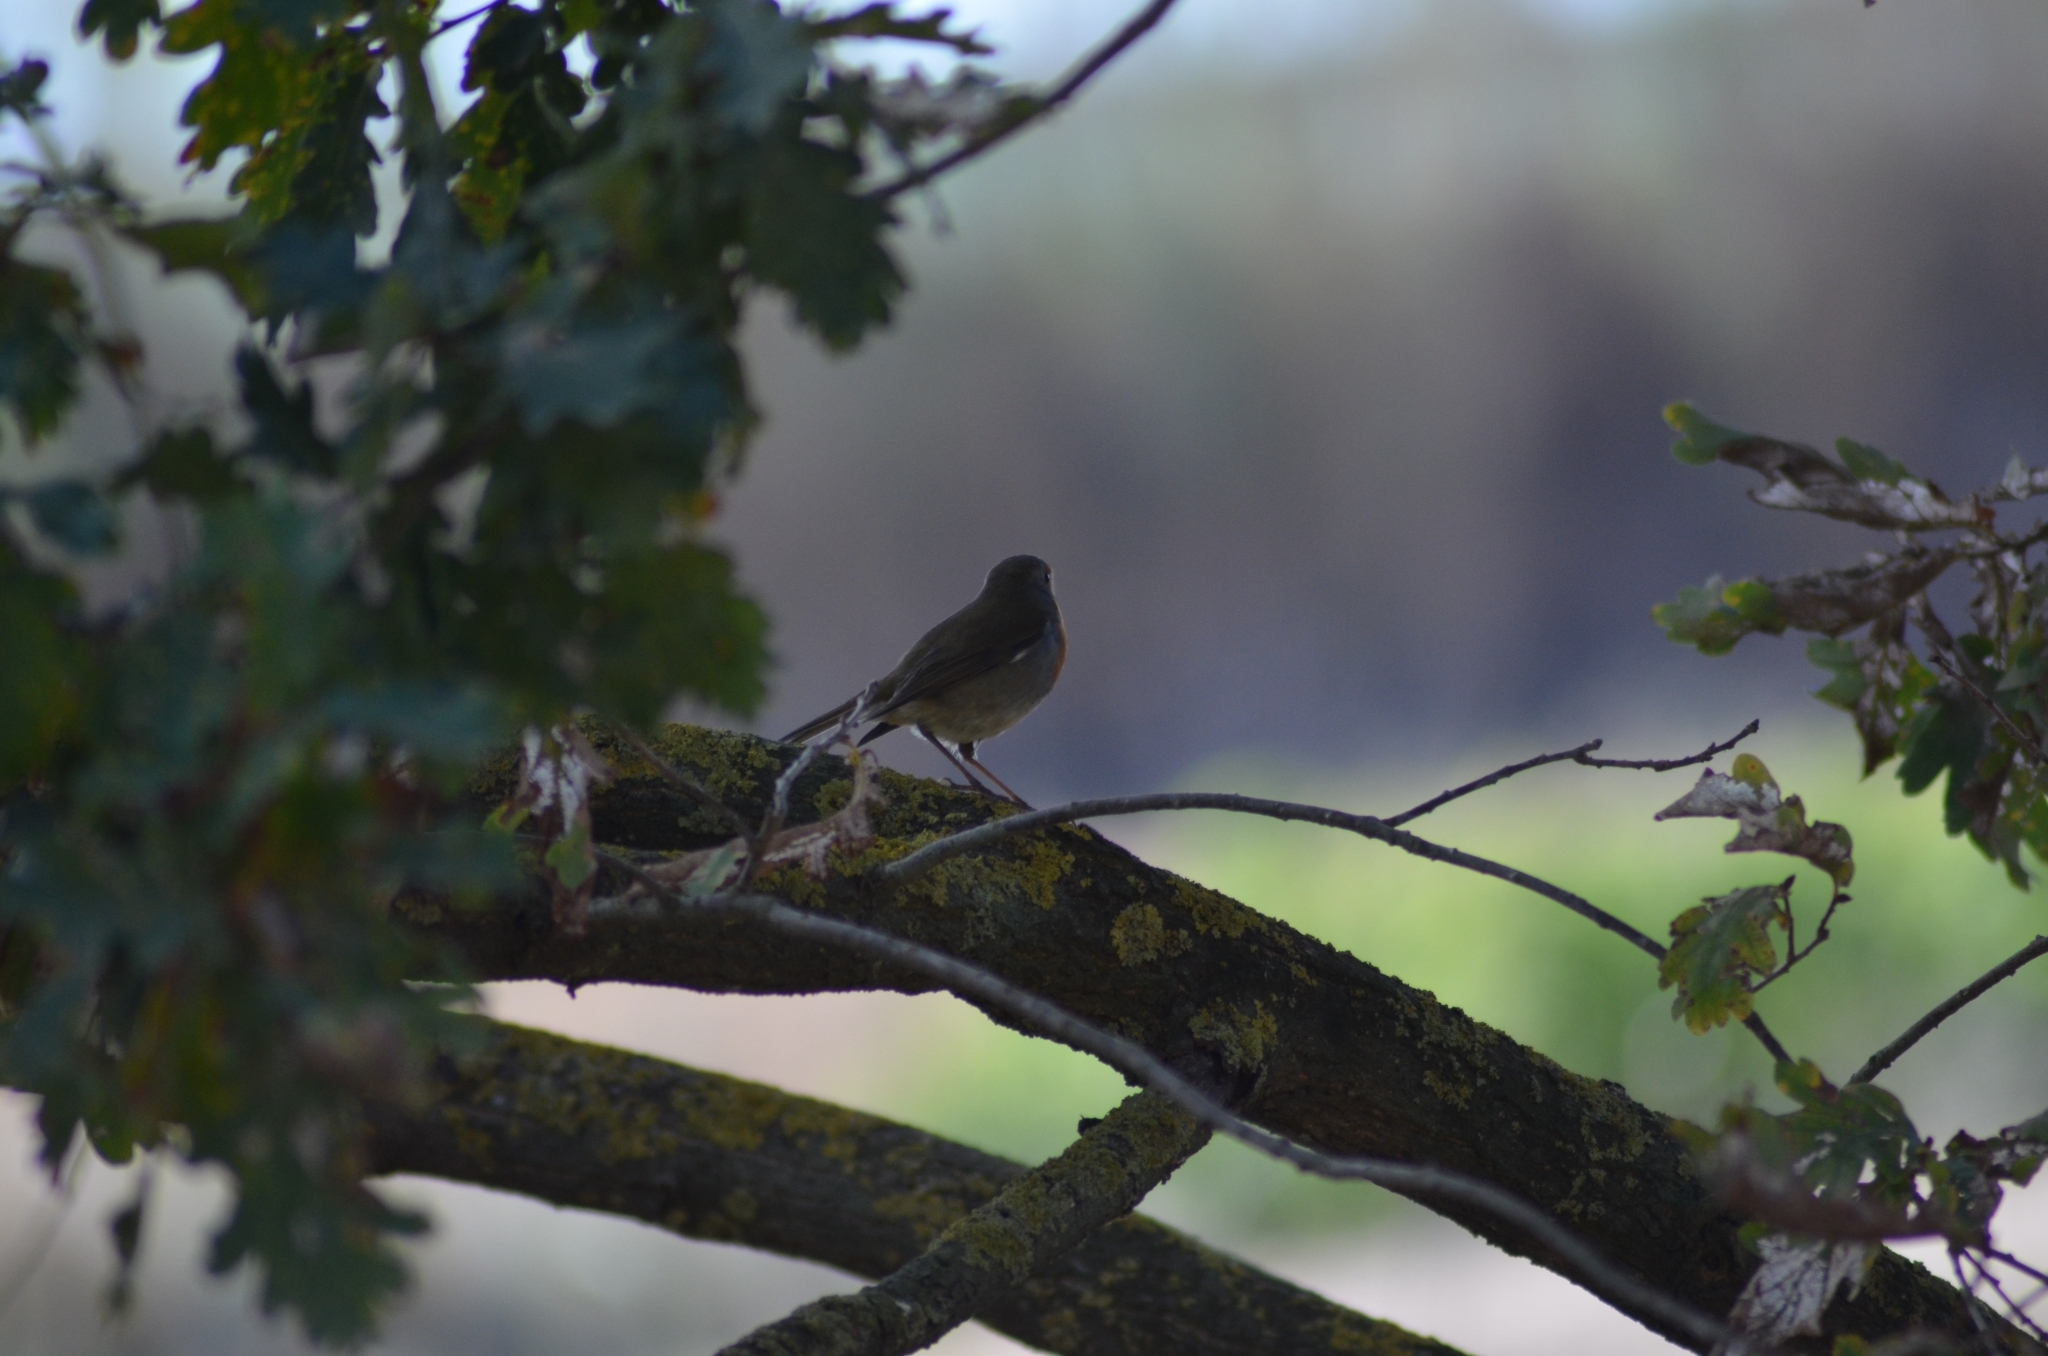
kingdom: Animalia
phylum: Chordata
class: Aves
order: Passeriformes
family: Muscicapidae
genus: Erithacus
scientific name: Erithacus rubecula
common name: European robin
